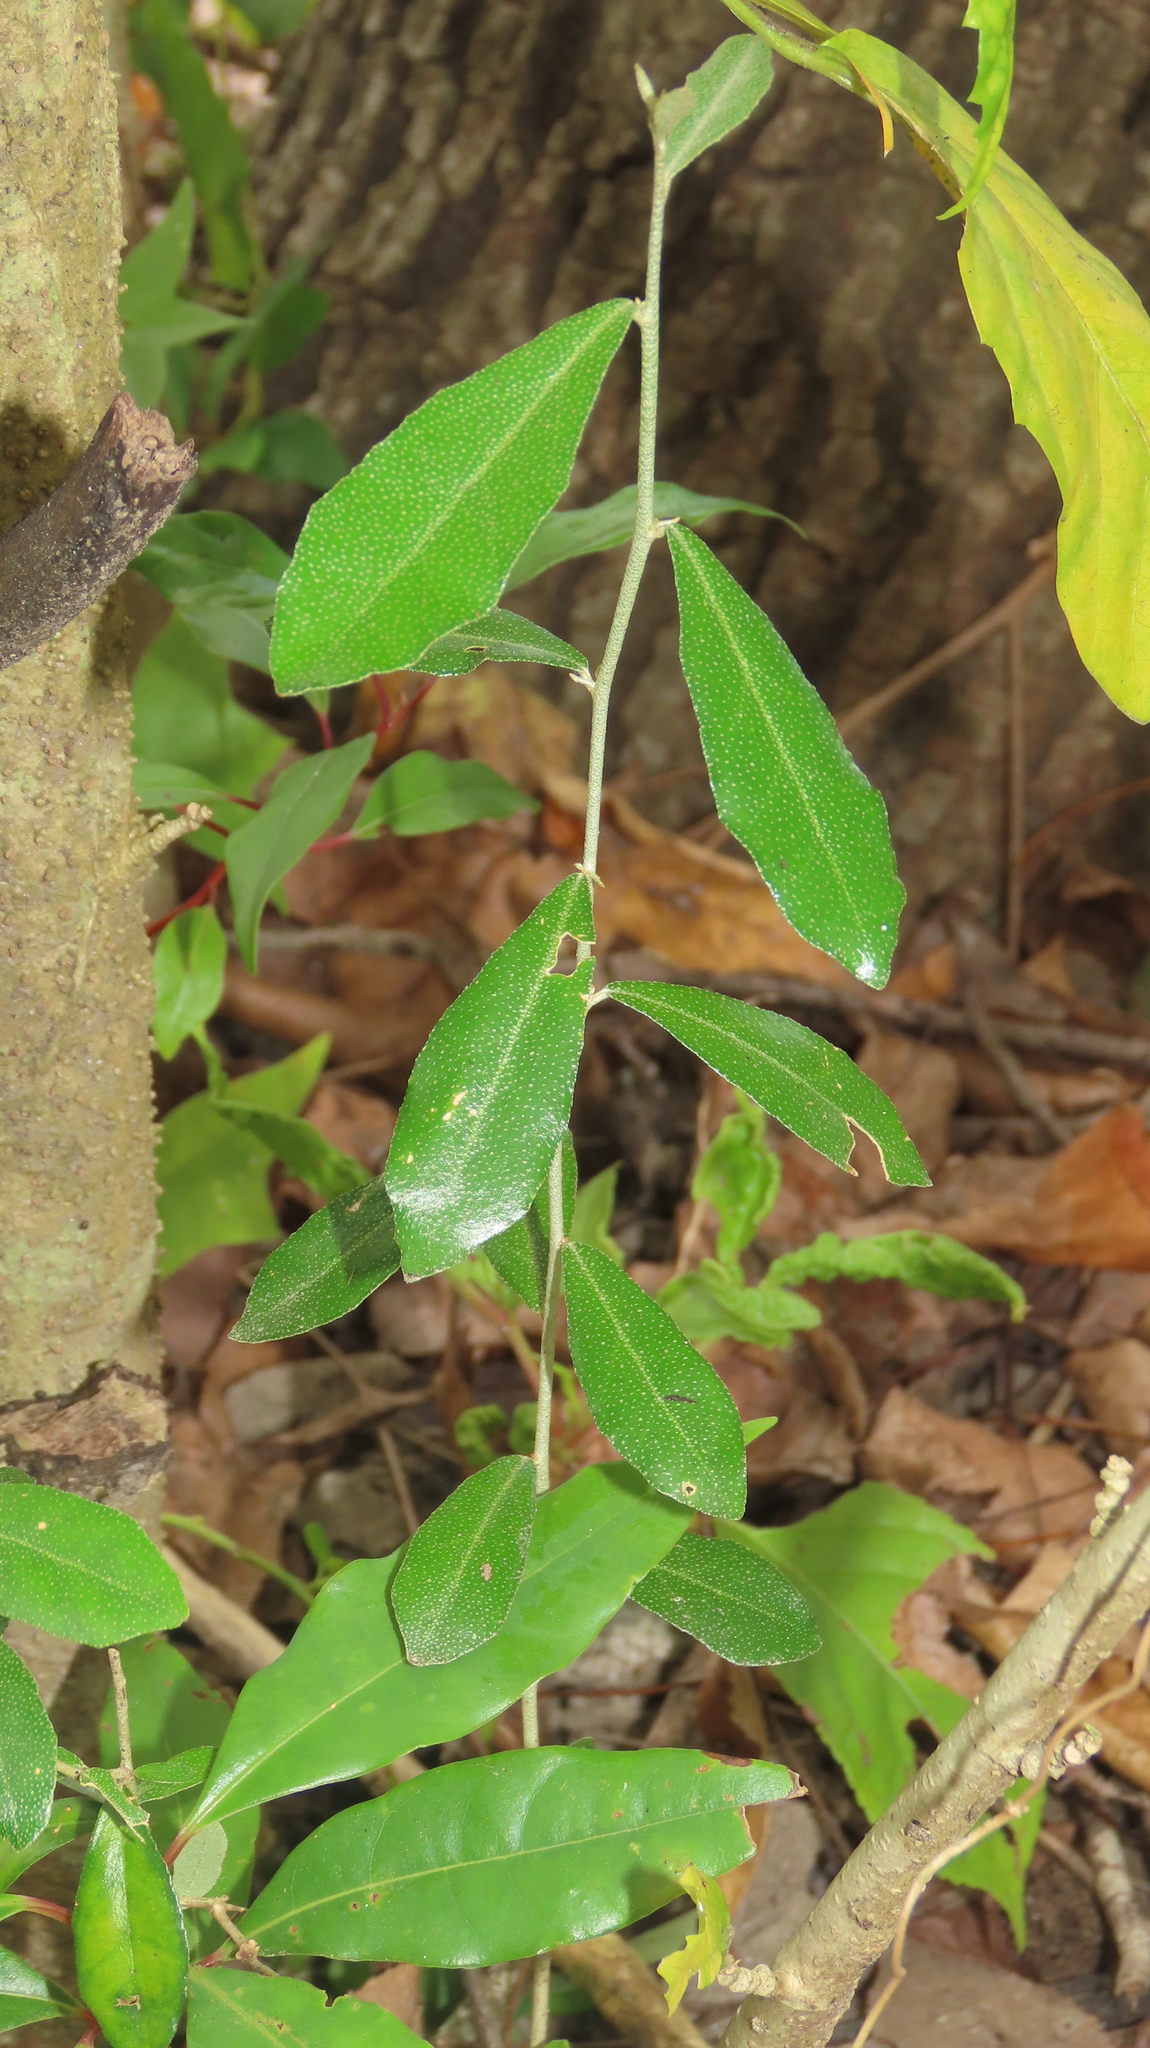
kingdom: Plantae
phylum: Tracheophyta
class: Magnoliopsida
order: Rosales
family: Elaeagnaceae
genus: Elaeagnus
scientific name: Elaeagnus oldhamii
